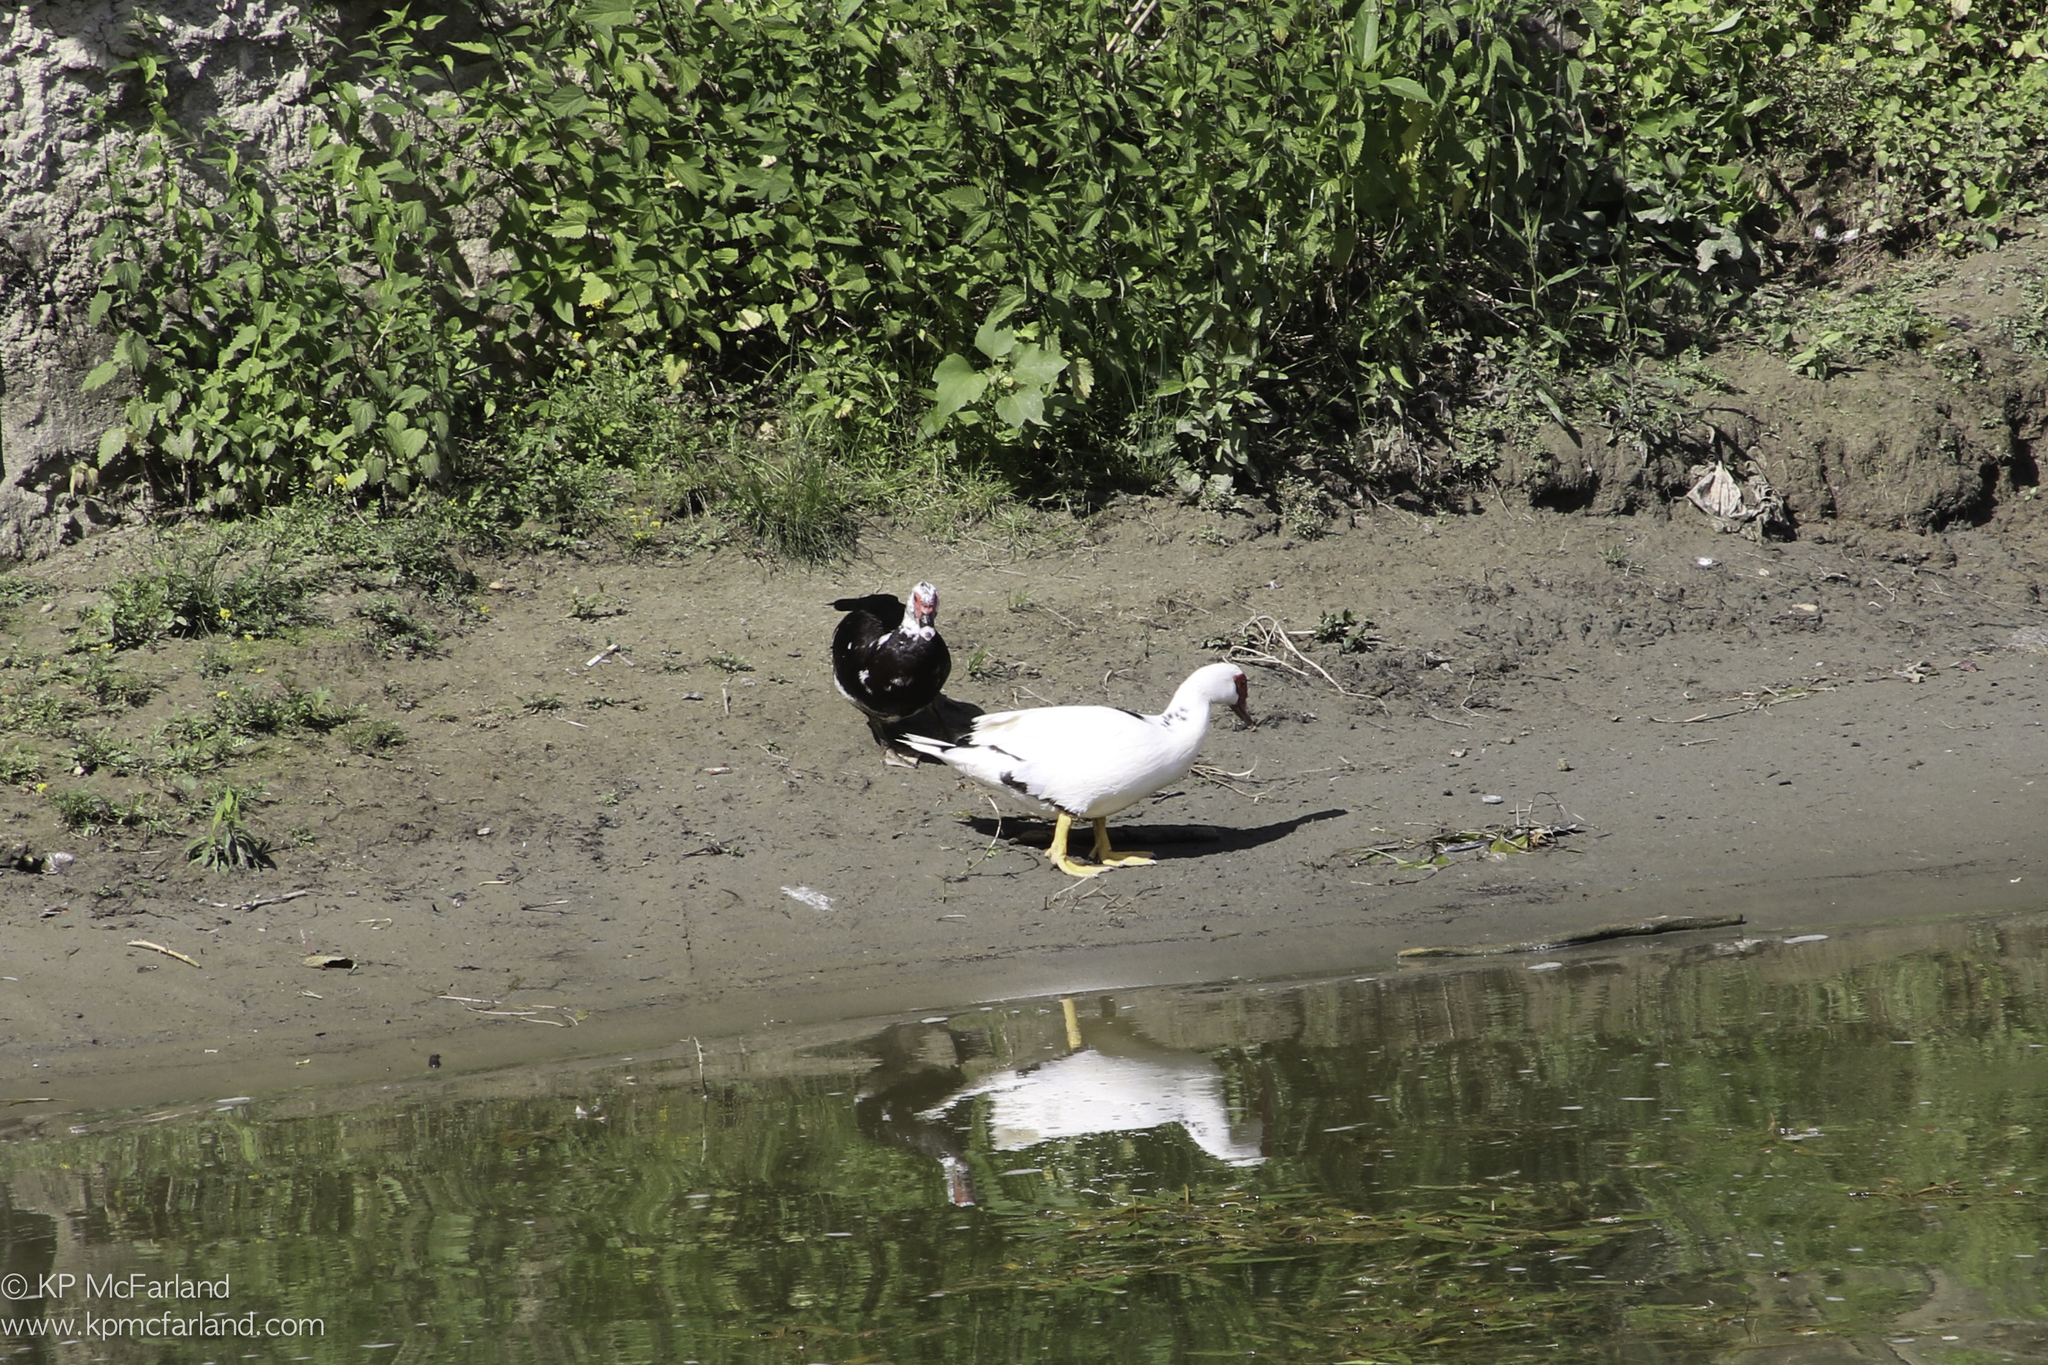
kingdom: Animalia
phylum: Chordata
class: Aves
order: Anseriformes
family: Anatidae
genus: Cairina
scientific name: Cairina moschata
